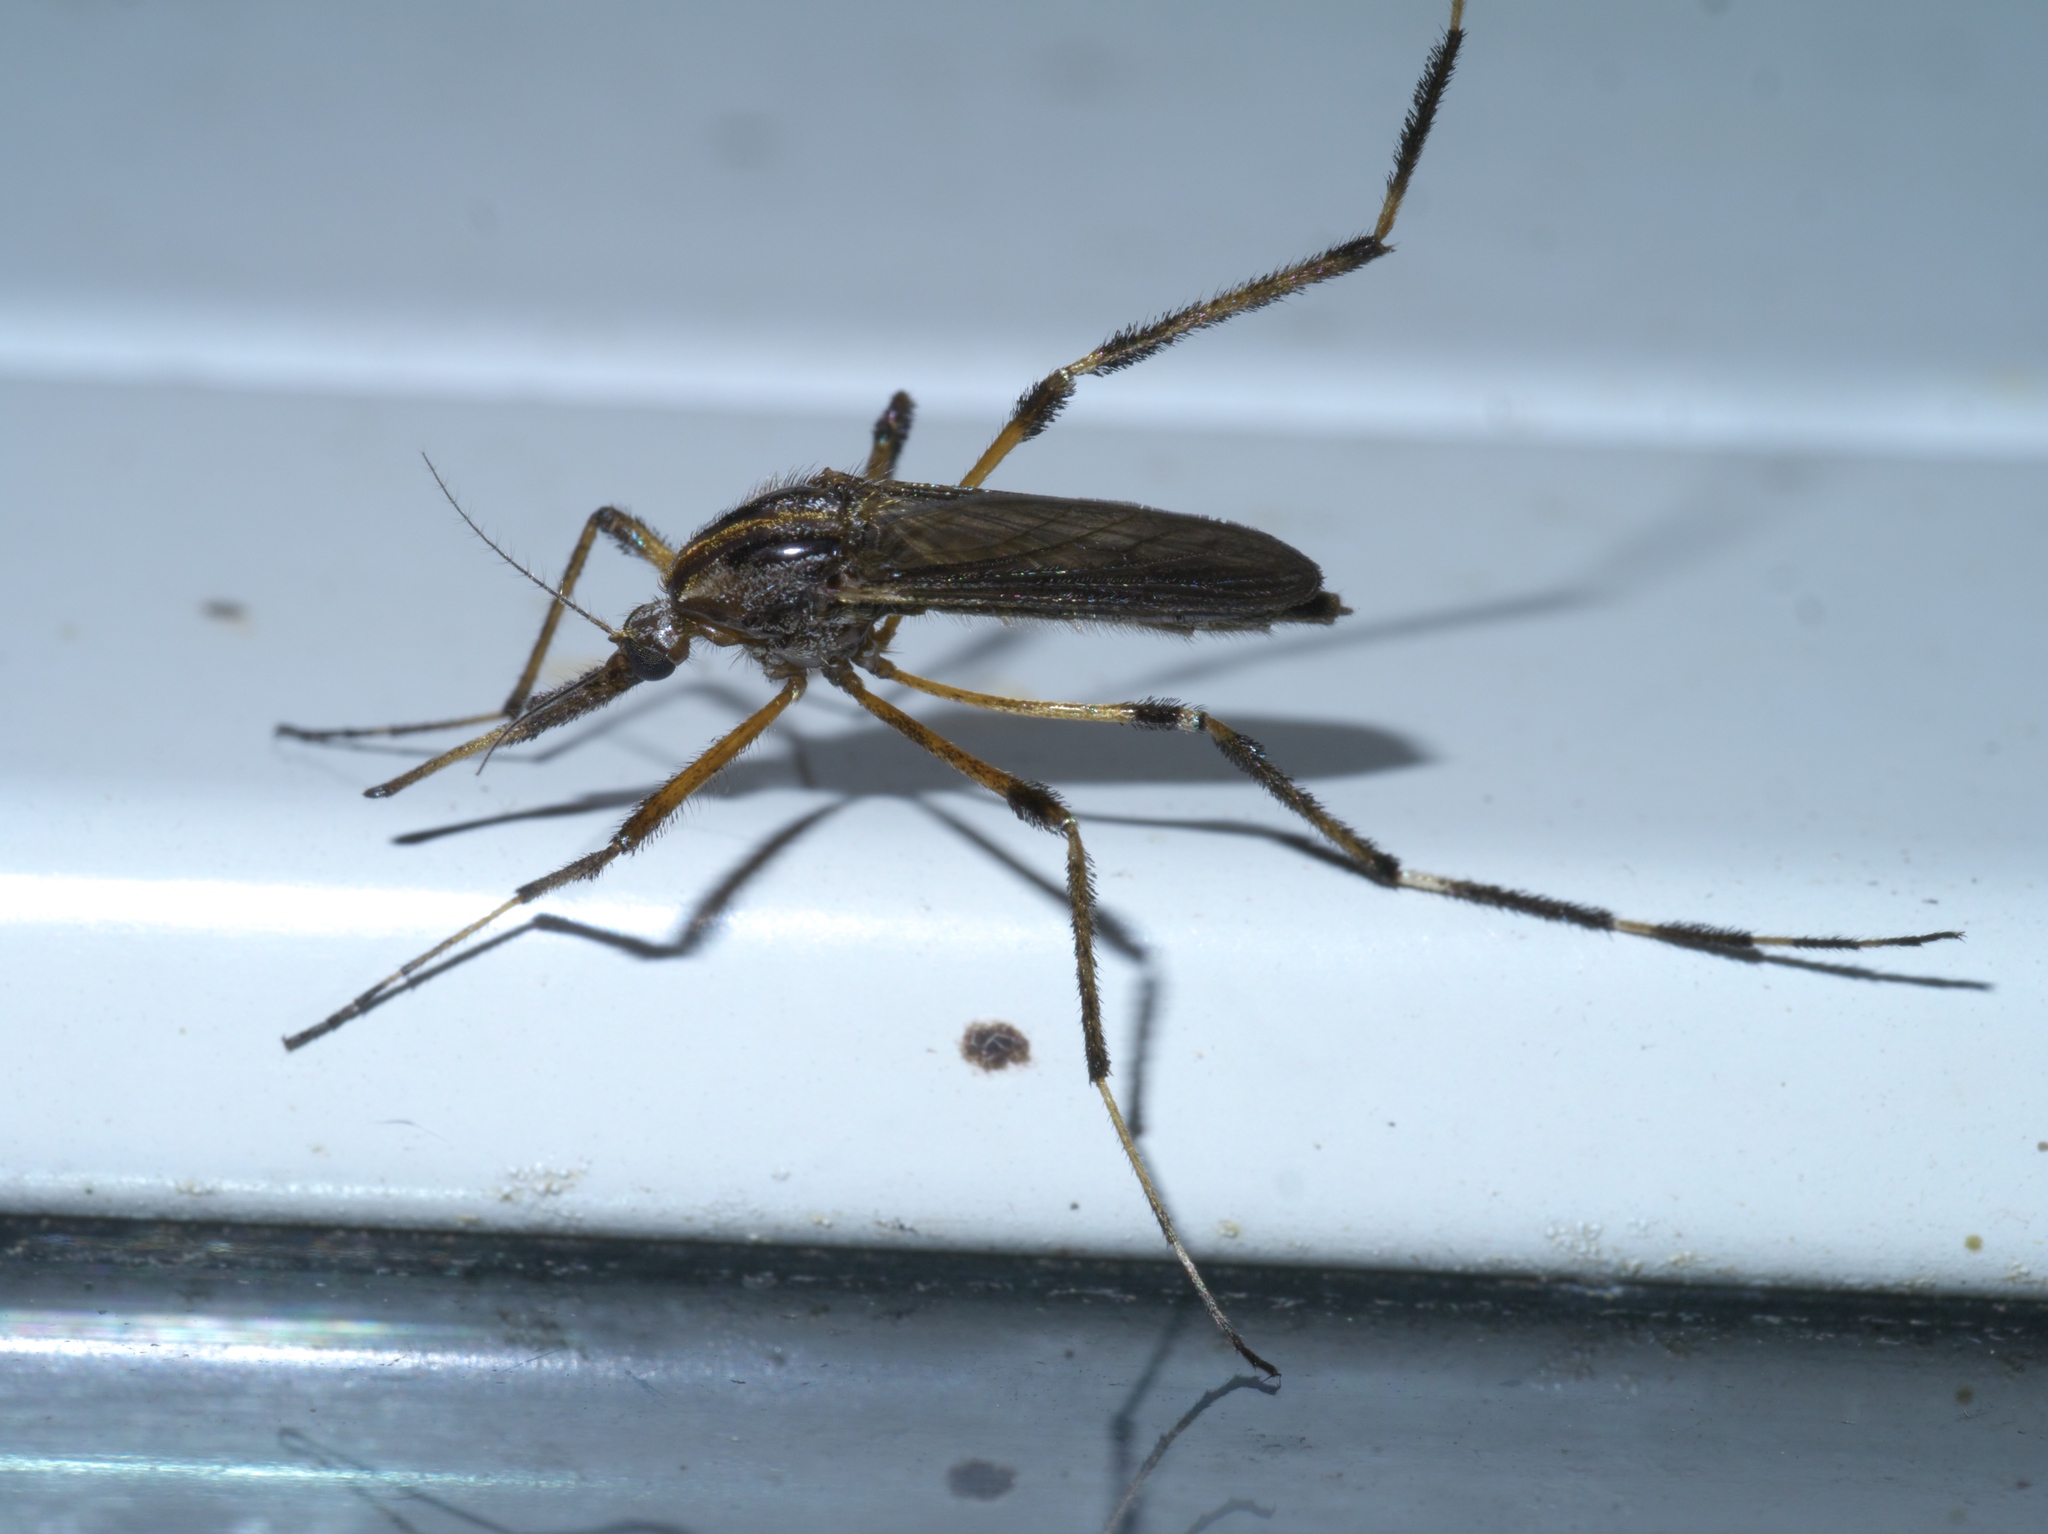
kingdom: Animalia
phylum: Arthropoda
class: Insecta
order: Diptera
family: Culicidae
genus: Psorophora
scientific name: Psorophora ciliata
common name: Gallinipper
